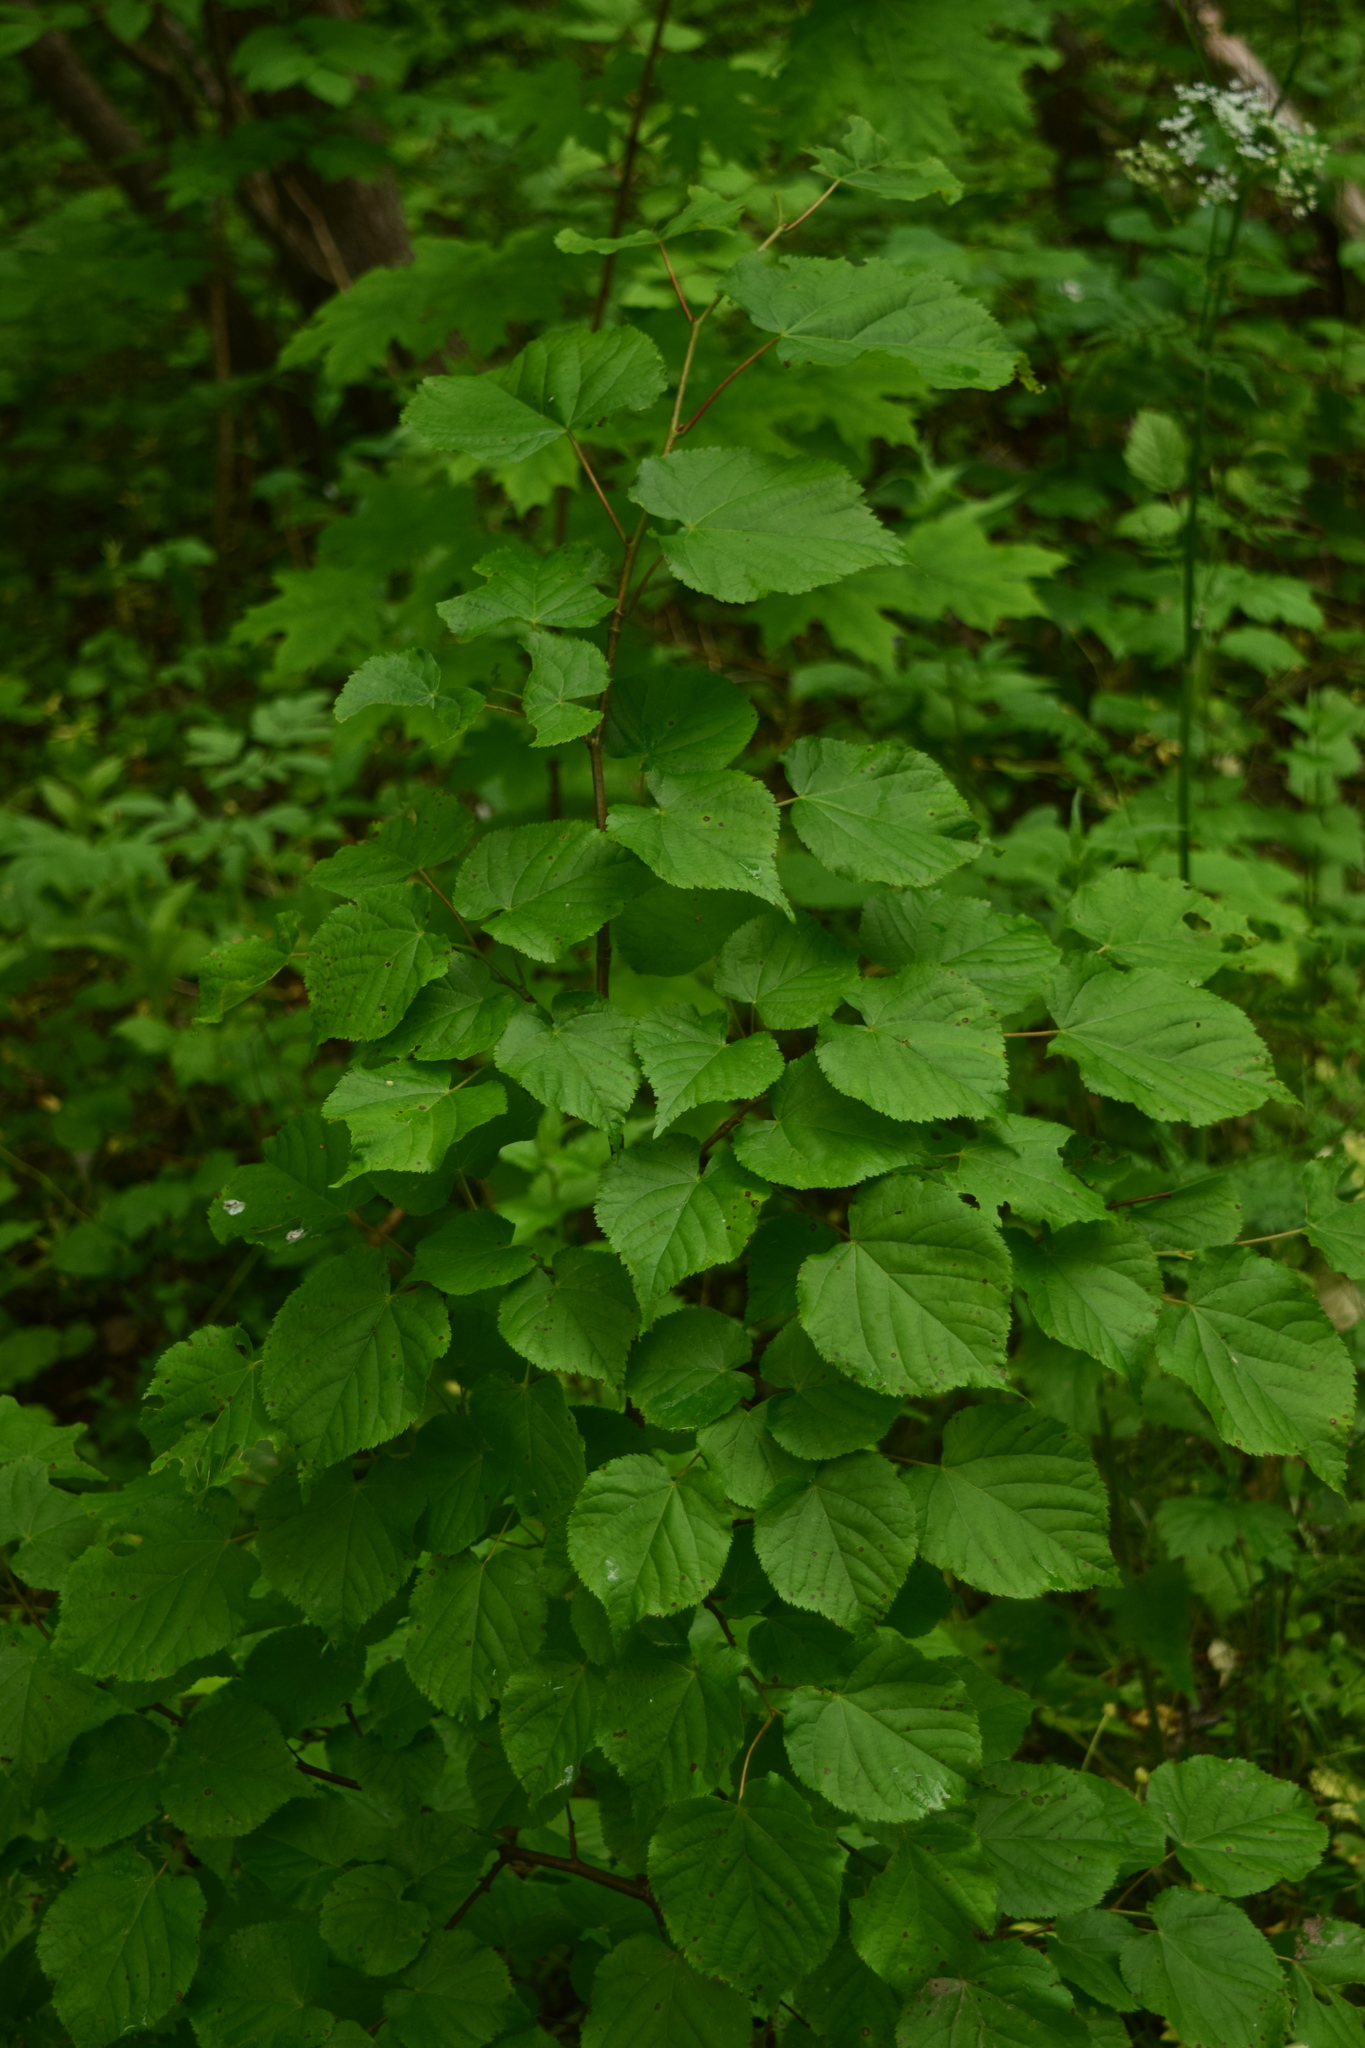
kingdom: Plantae
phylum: Tracheophyta
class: Magnoliopsida
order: Malvales
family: Malvaceae
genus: Tilia
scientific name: Tilia cordata
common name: Small-leaved lime
